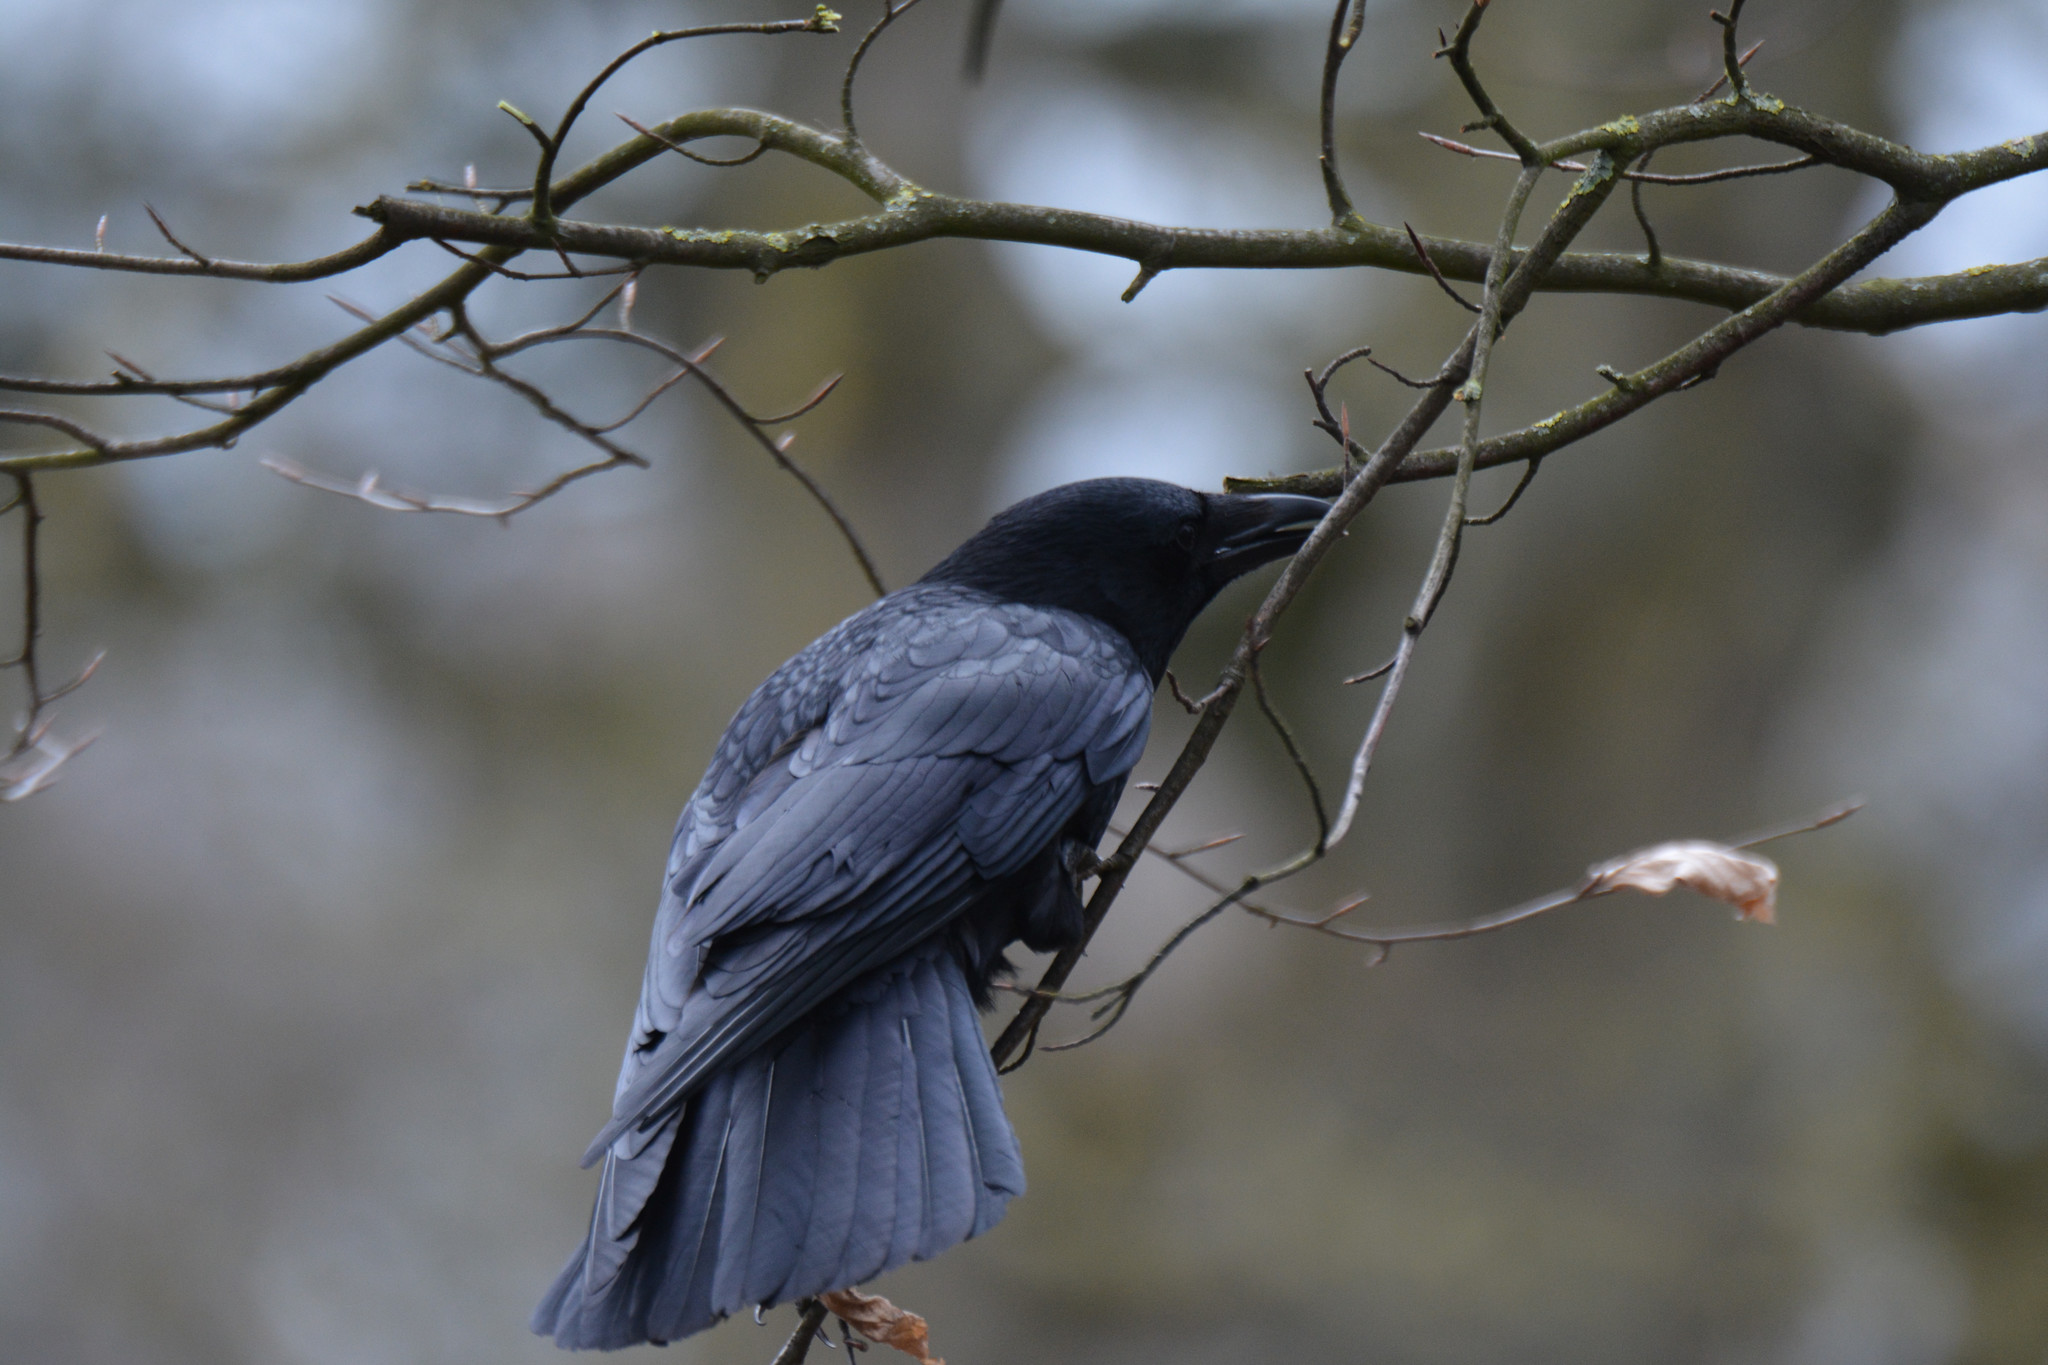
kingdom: Animalia
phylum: Chordata
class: Aves
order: Passeriformes
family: Corvidae
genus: Corvus
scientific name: Corvus corone
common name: Carrion crow
